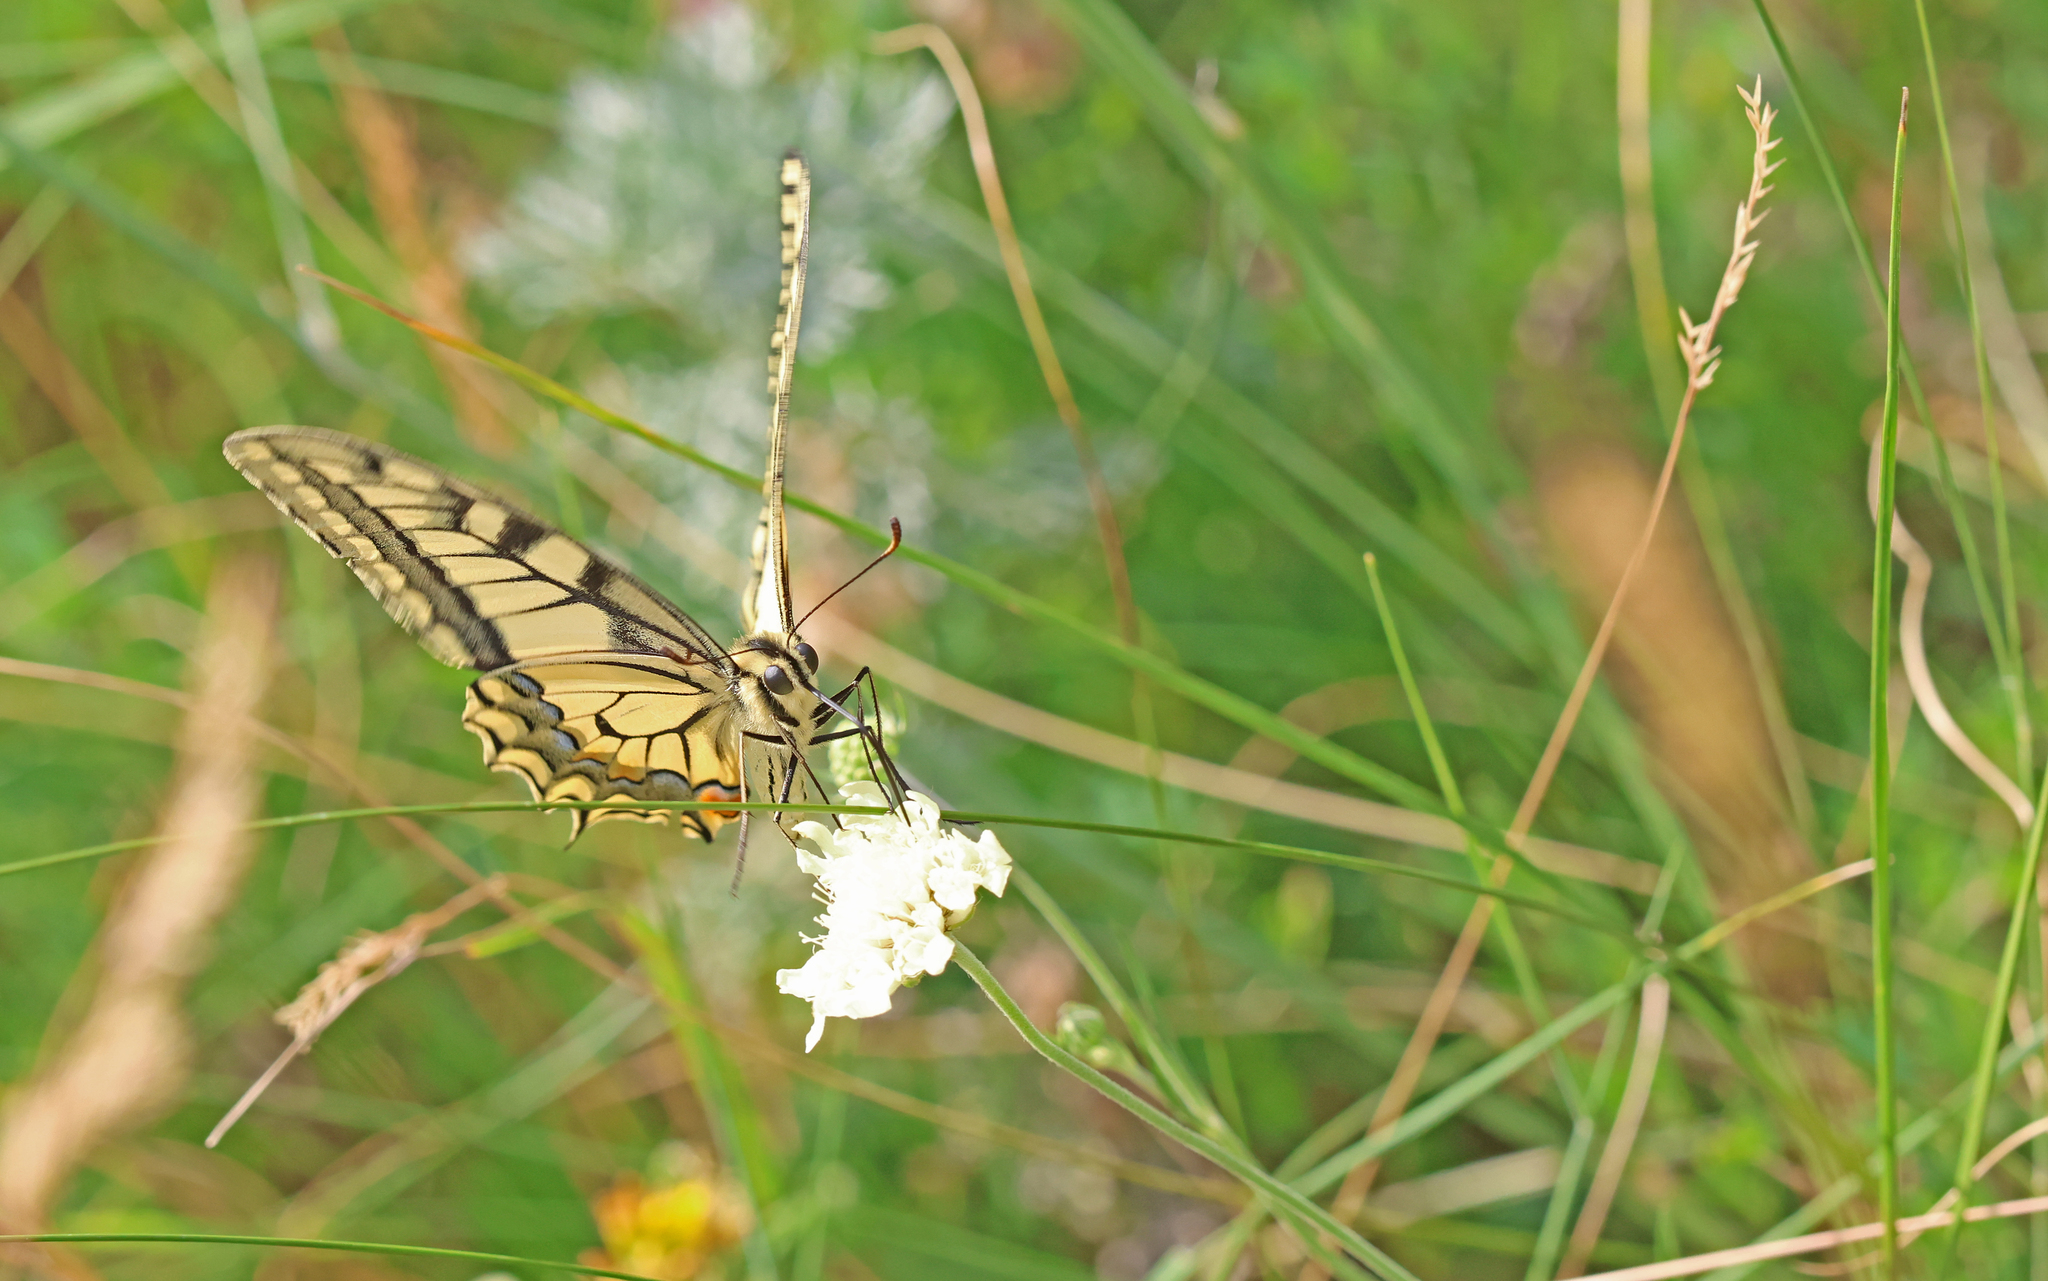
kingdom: Animalia
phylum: Arthropoda
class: Insecta
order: Lepidoptera
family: Papilionidae
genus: Papilio
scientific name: Papilio machaon
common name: Swallowtail
